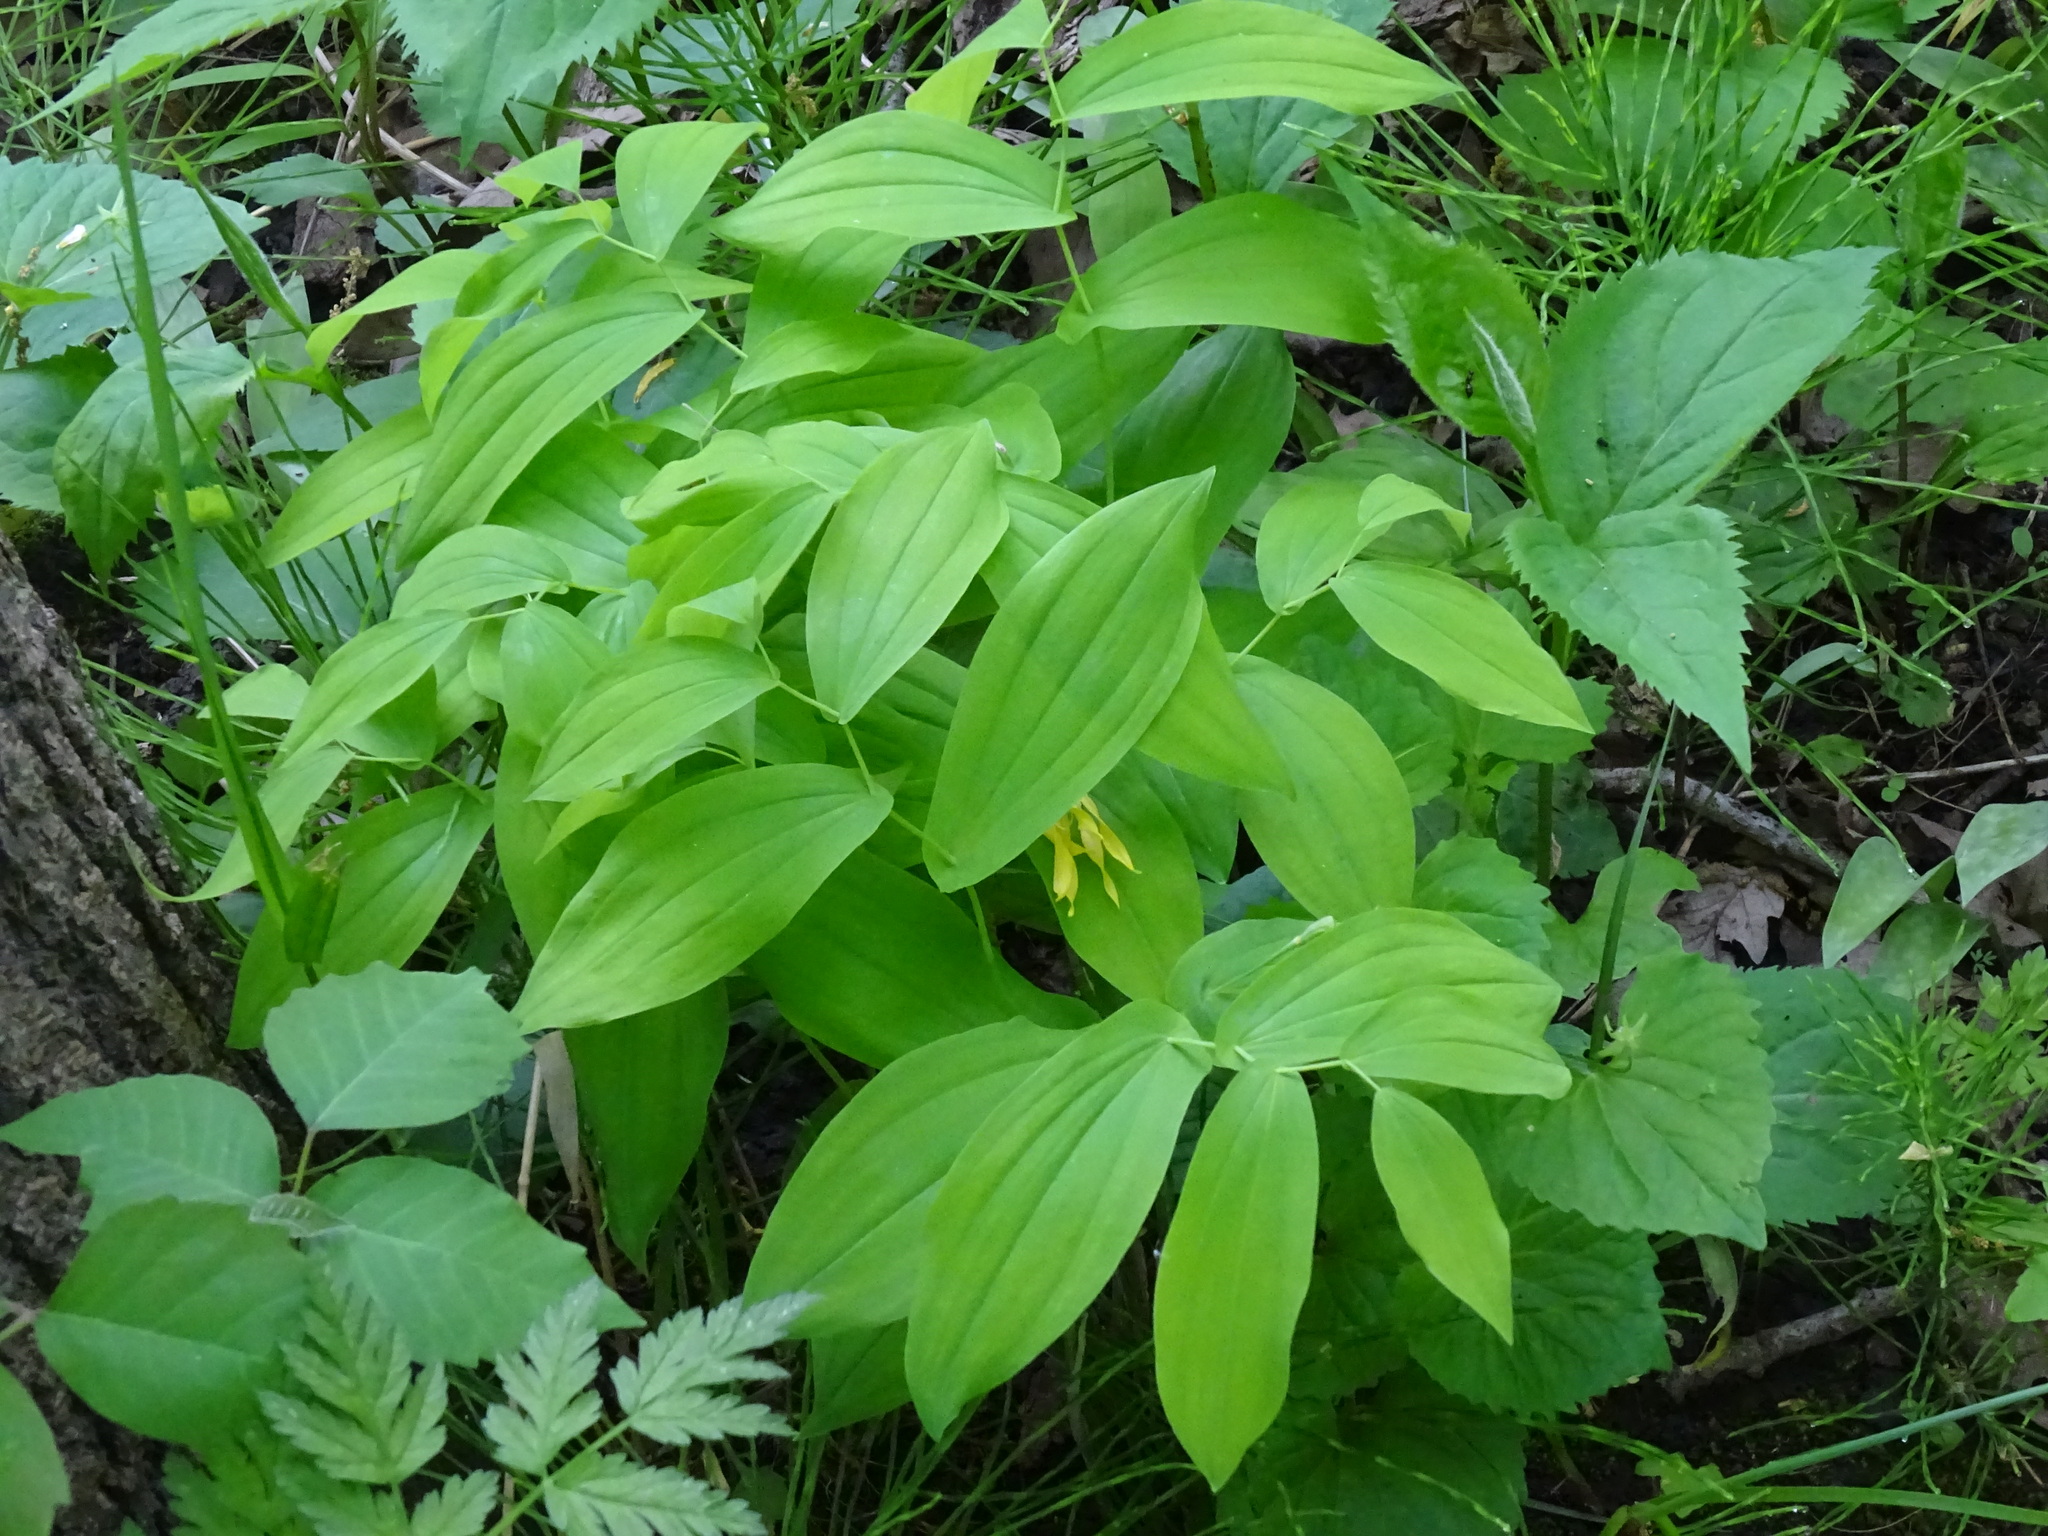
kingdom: Plantae
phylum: Tracheophyta
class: Liliopsida
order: Liliales
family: Colchicaceae
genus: Uvularia
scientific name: Uvularia grandiflora
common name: Bellwort
